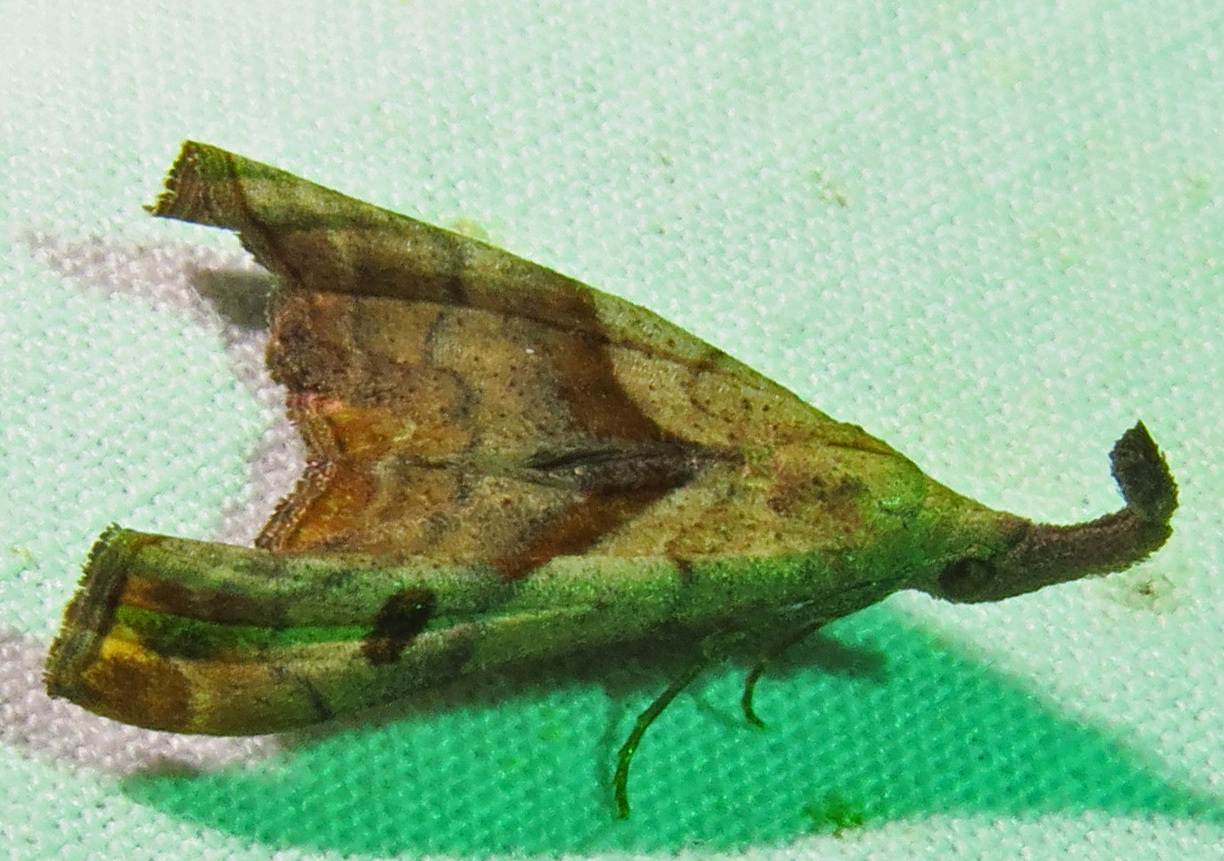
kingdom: Animalia
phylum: Arthropoda
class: Insecta
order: Lepidoptera
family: Erebidae
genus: Palthis
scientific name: Palthis angulalis
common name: Dark-spotted palthis moth
